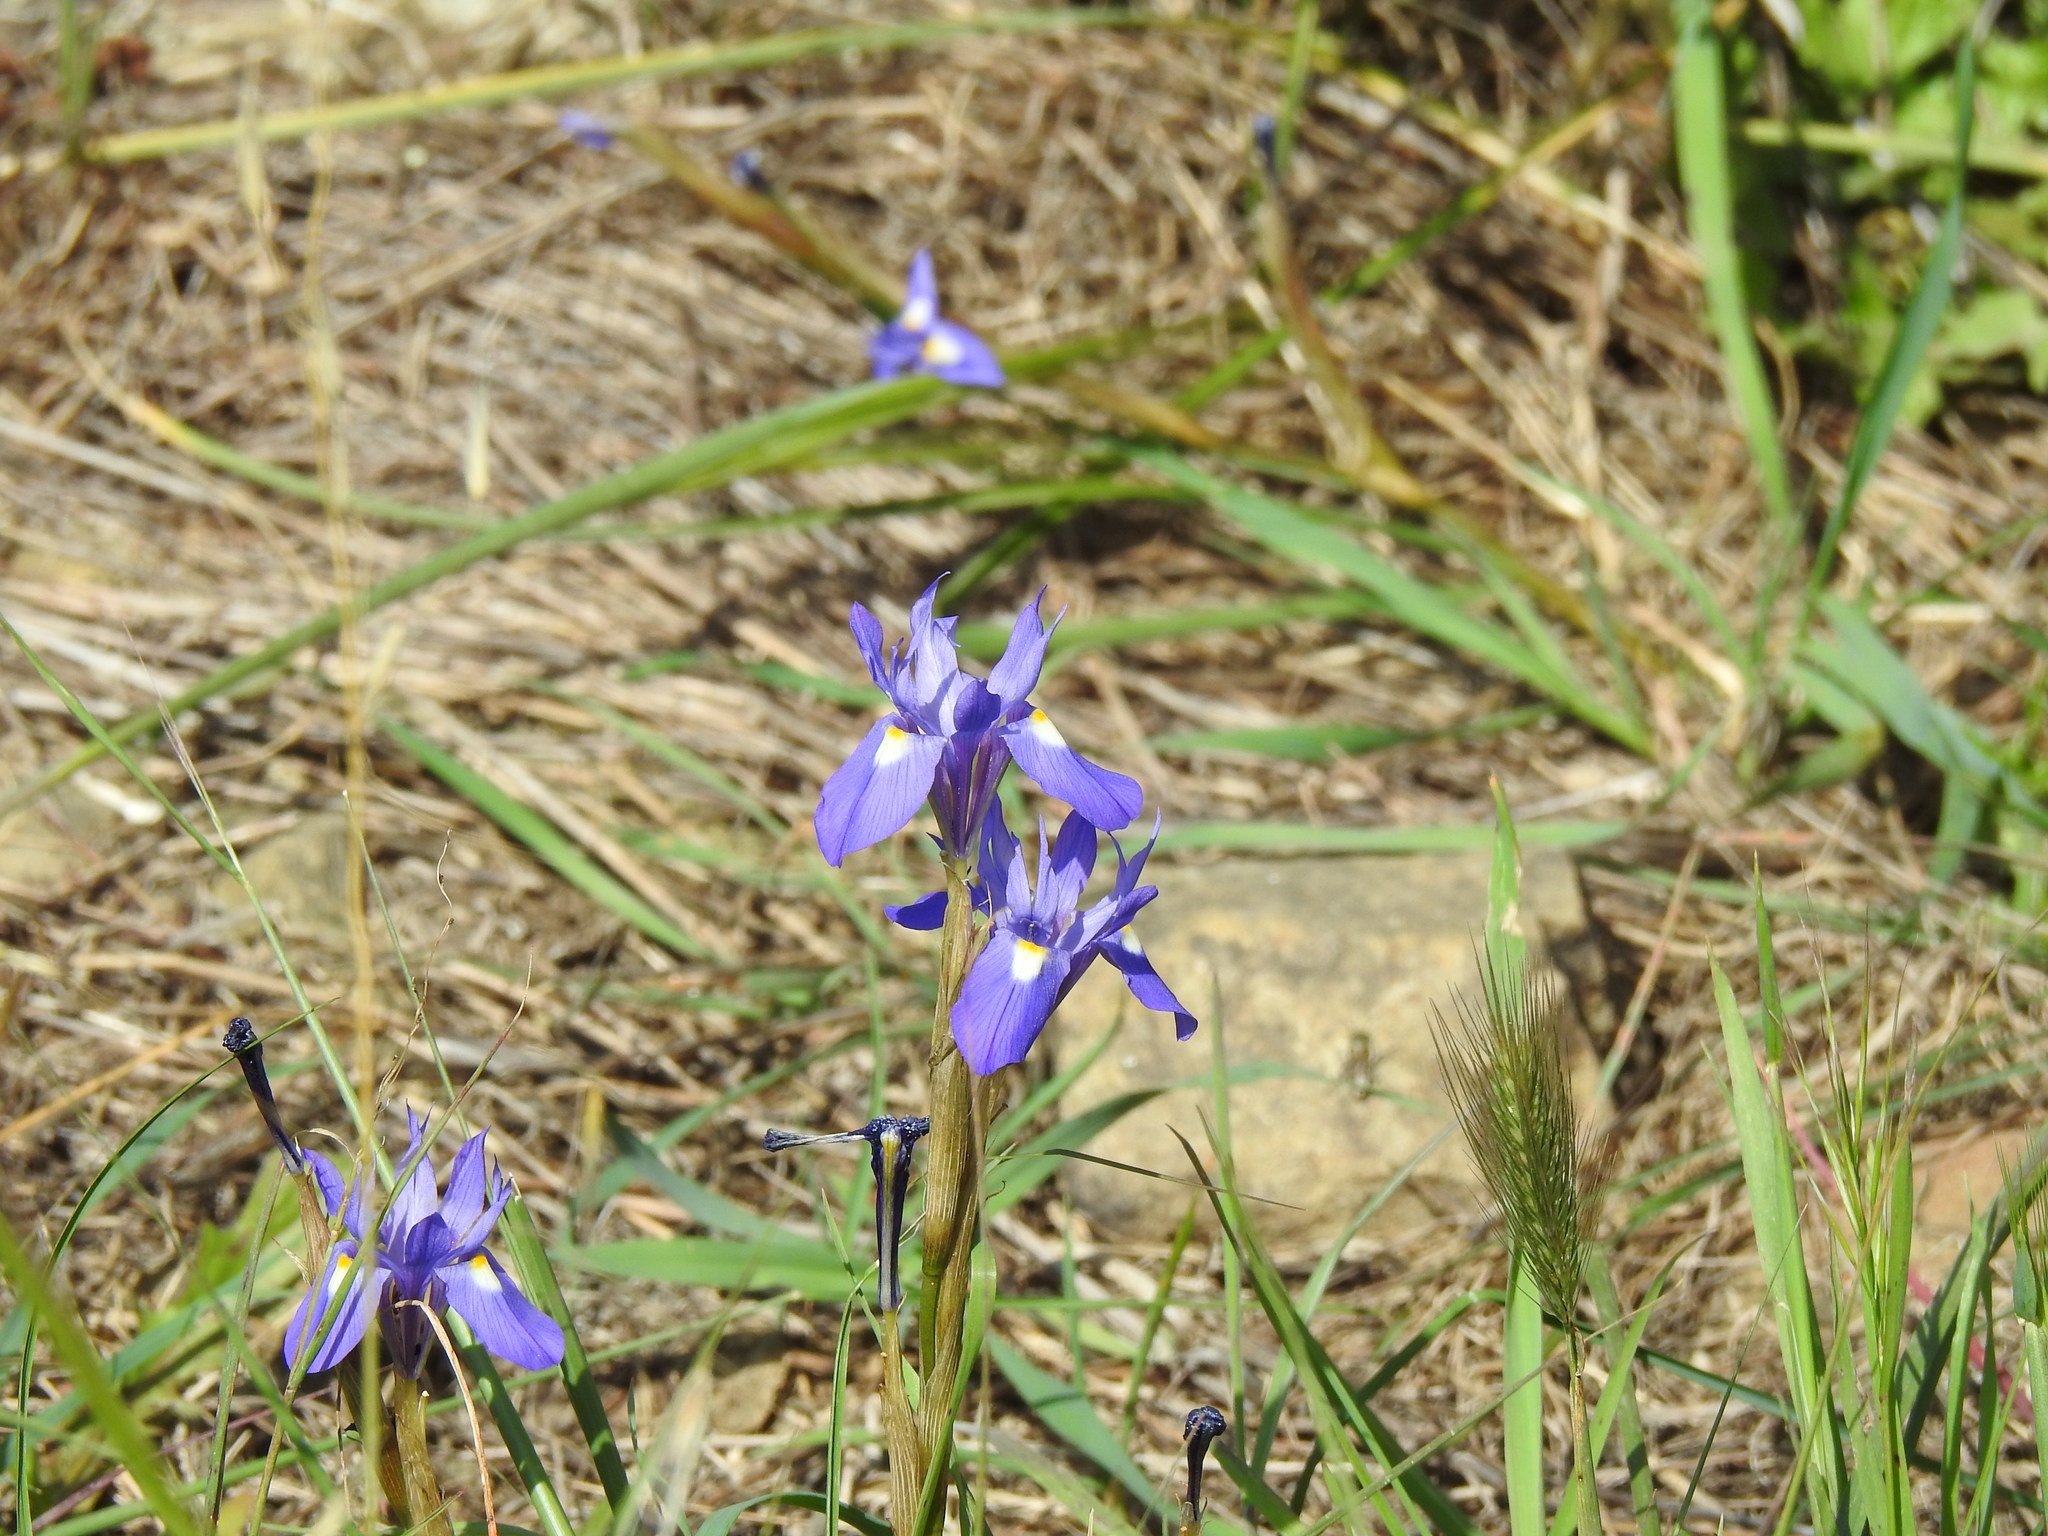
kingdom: Plantae
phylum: Tracheophyta
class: Liliopsida
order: Asparagales
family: Iridaceae
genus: Moraea
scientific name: Moraea sisyrinchium
